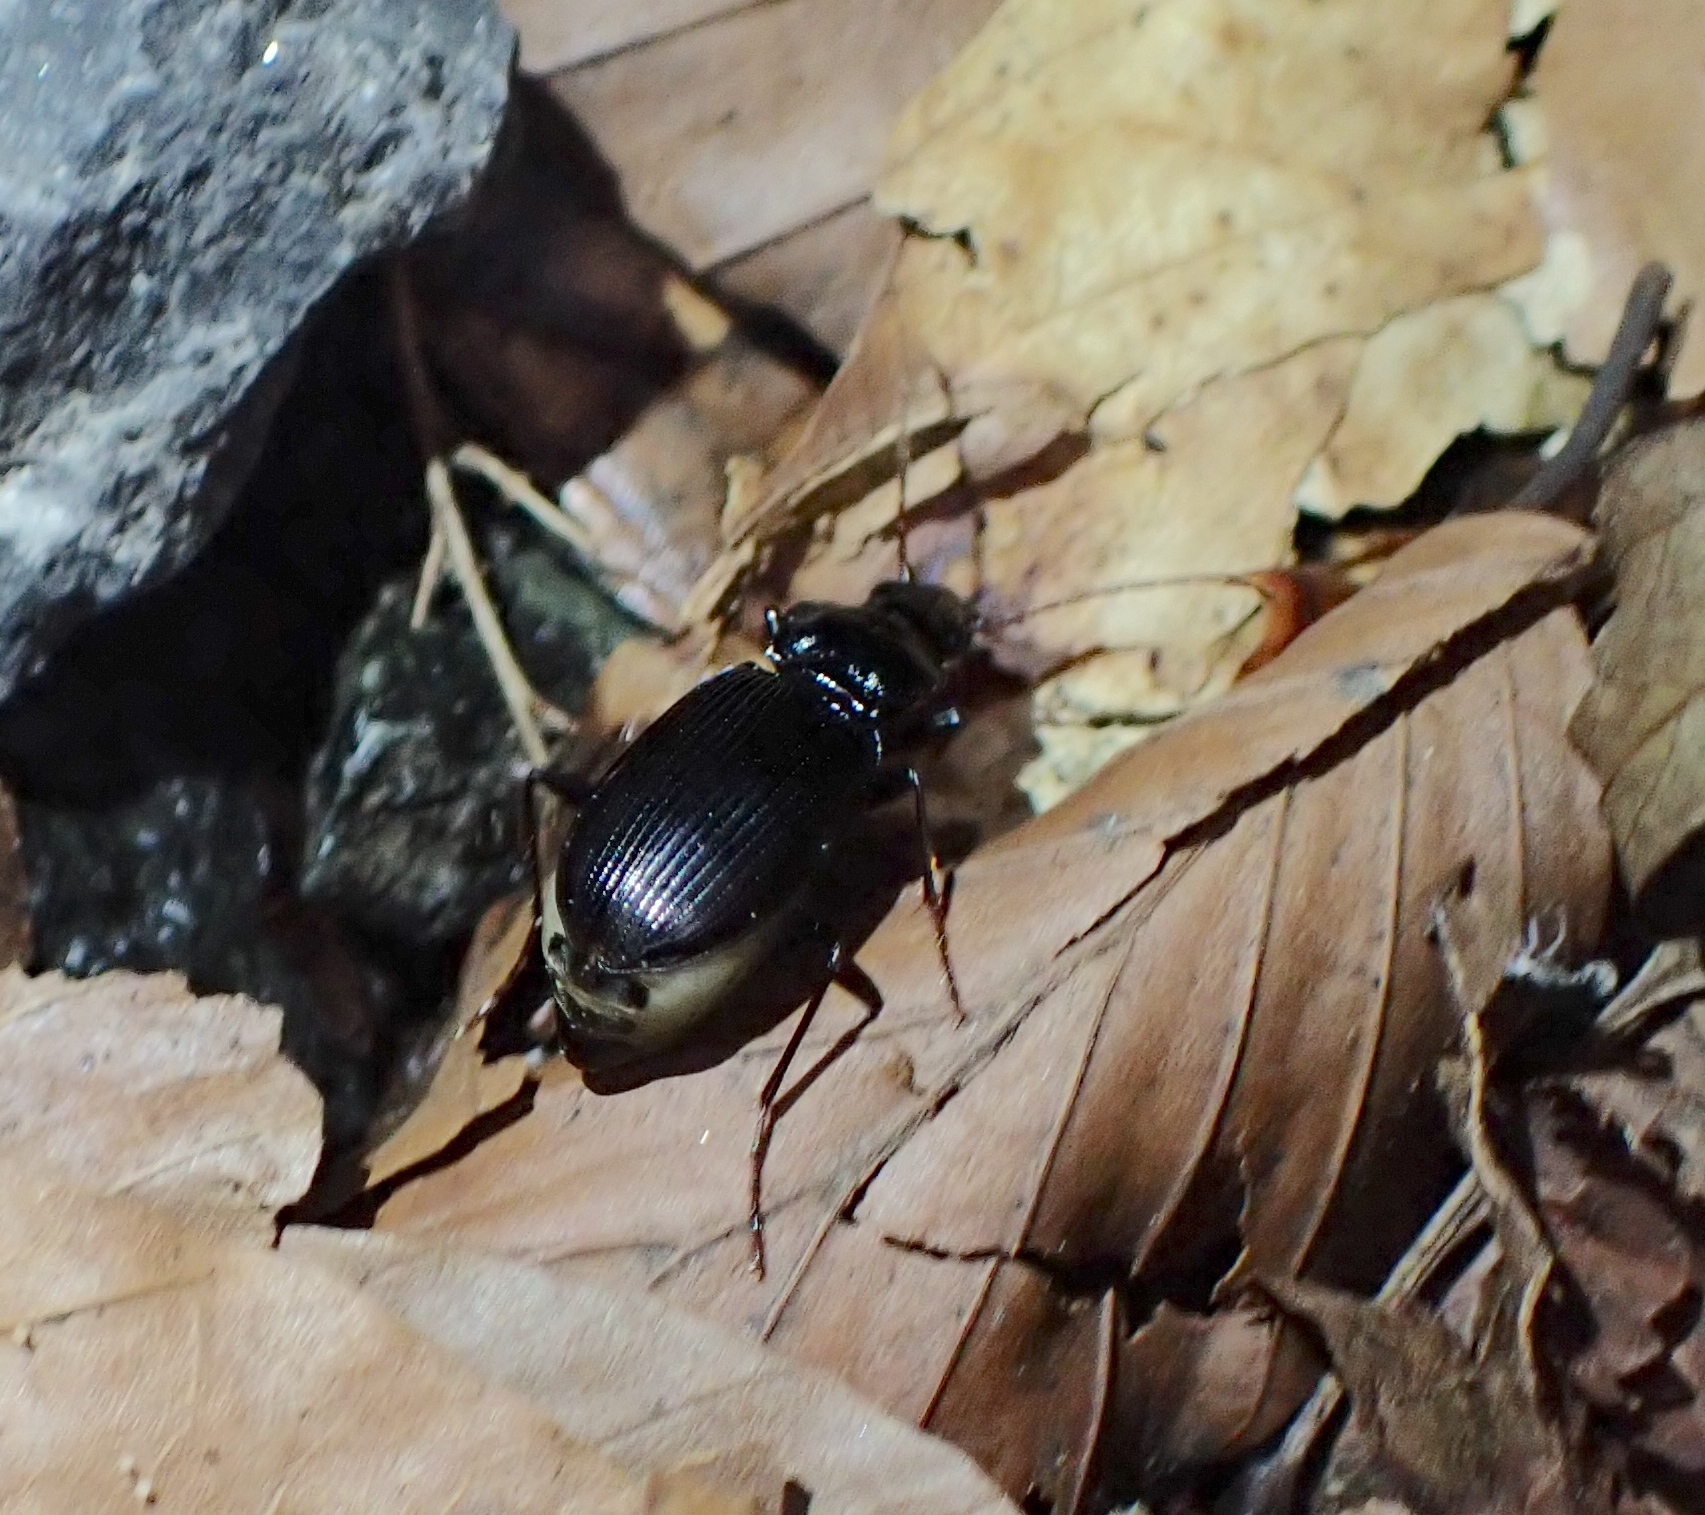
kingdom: Animalia
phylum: Arthropoda
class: Insecta
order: Coleoptera
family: Carabidae
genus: Nebria
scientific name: Nebria brevicollis
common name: Short-necked gazelle beetle
